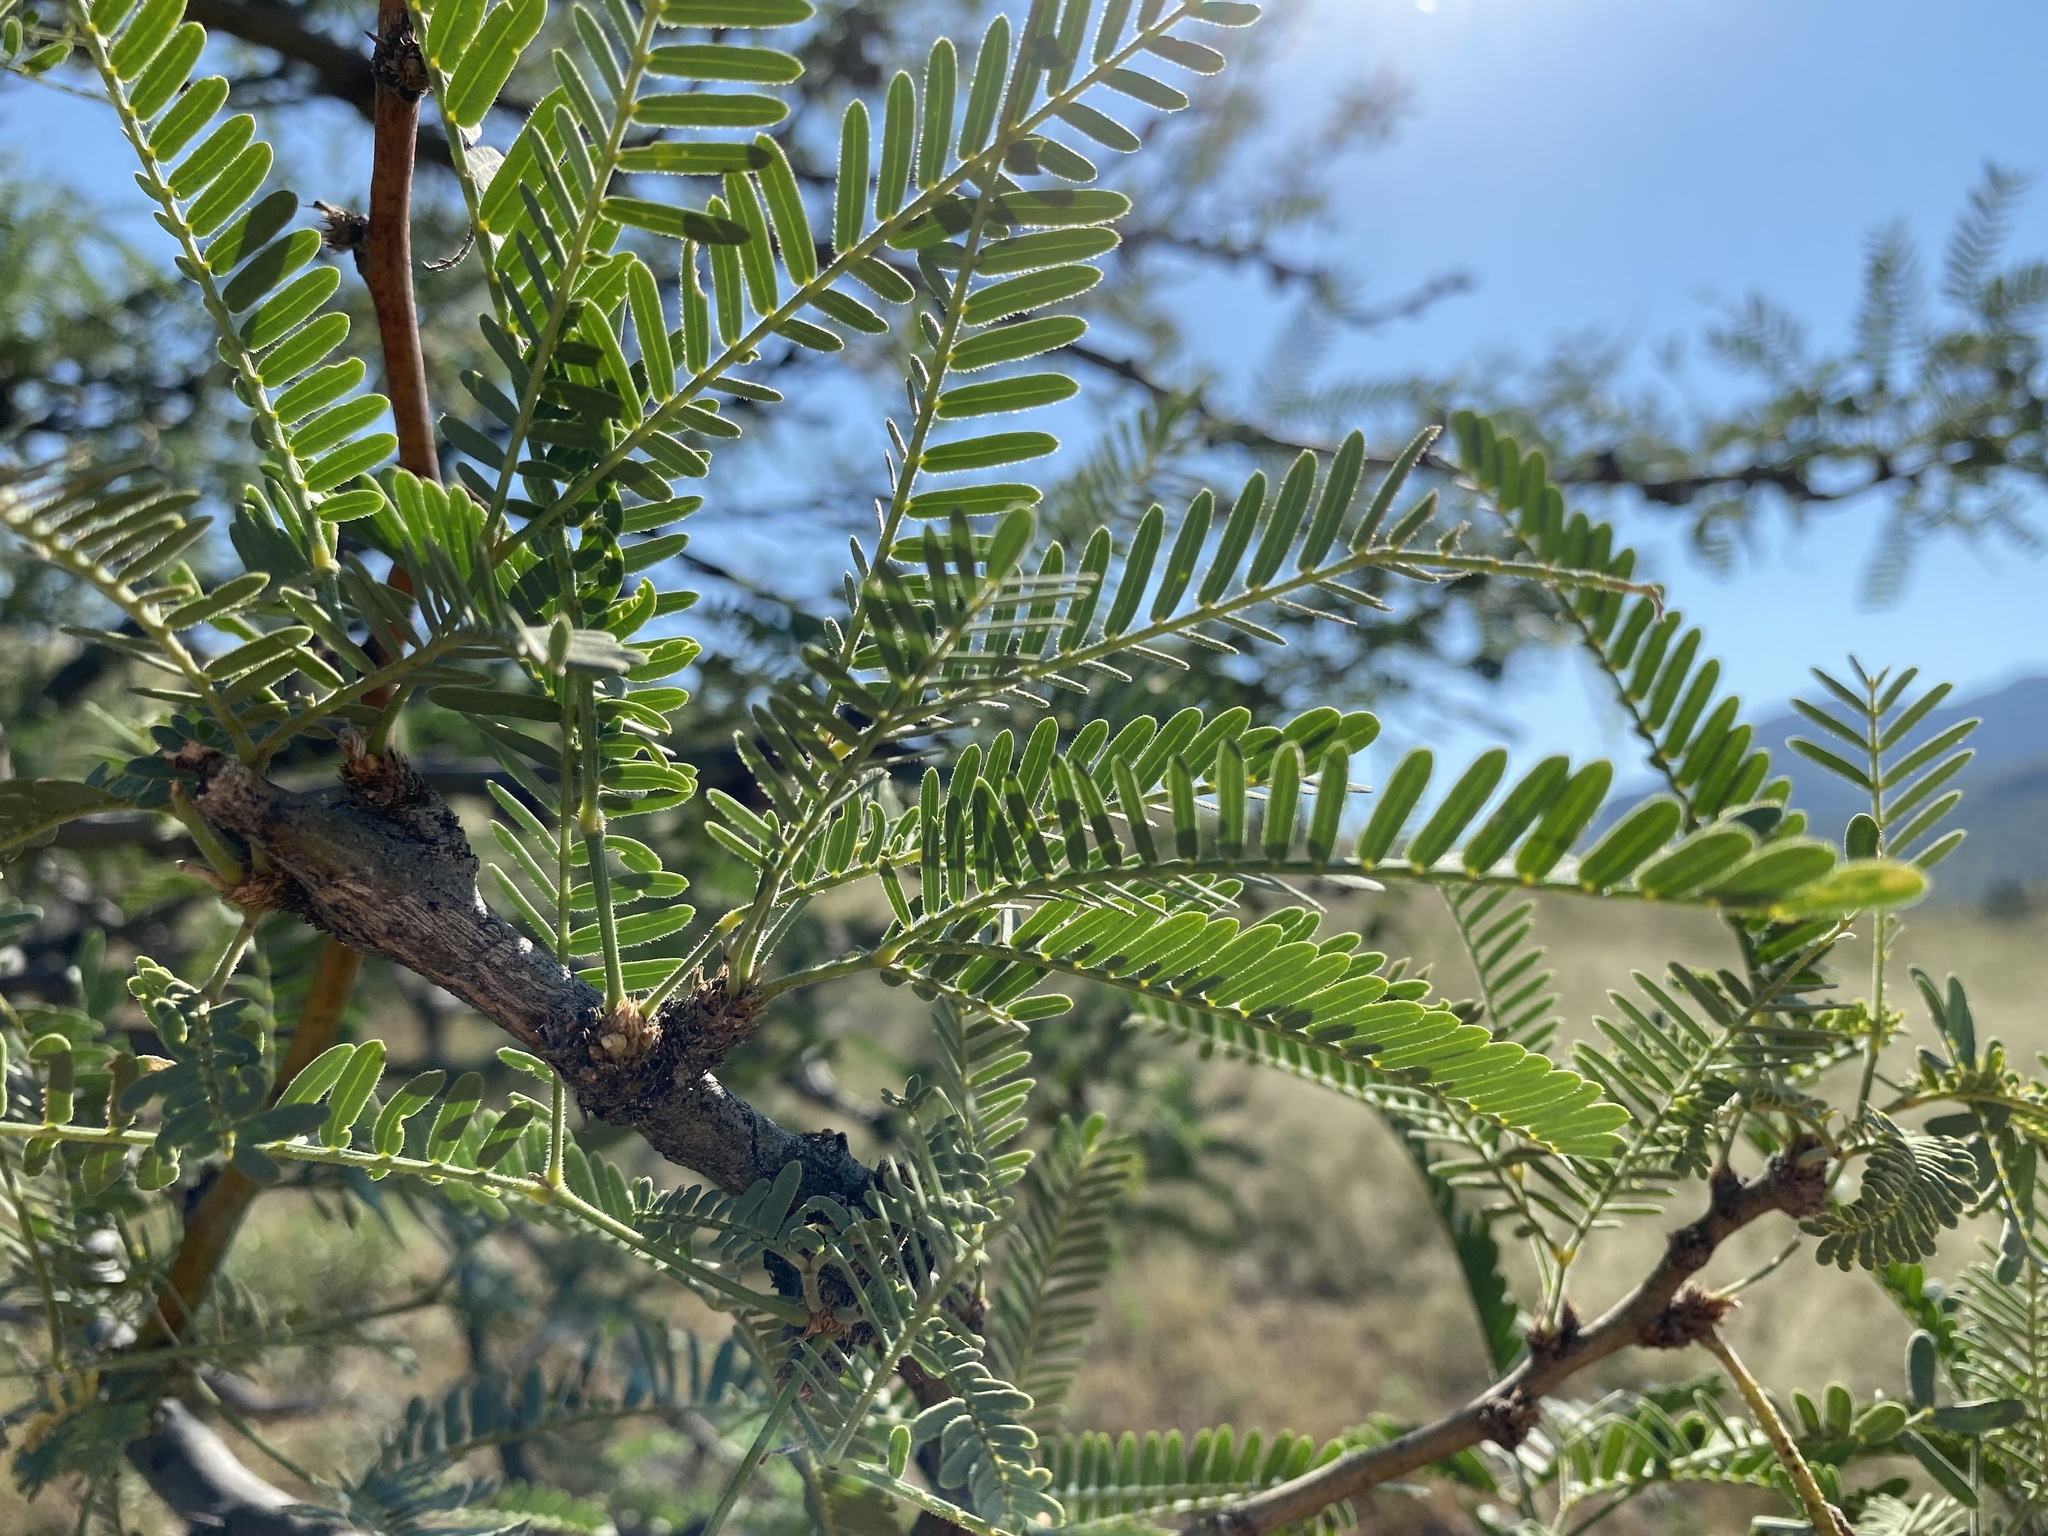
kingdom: Plantae
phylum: Tracheophyta
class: Magnoliopsida
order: Fabales
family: Fabaceae
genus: Prosopis
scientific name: Prosopis velutina
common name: Velvet mesquite
